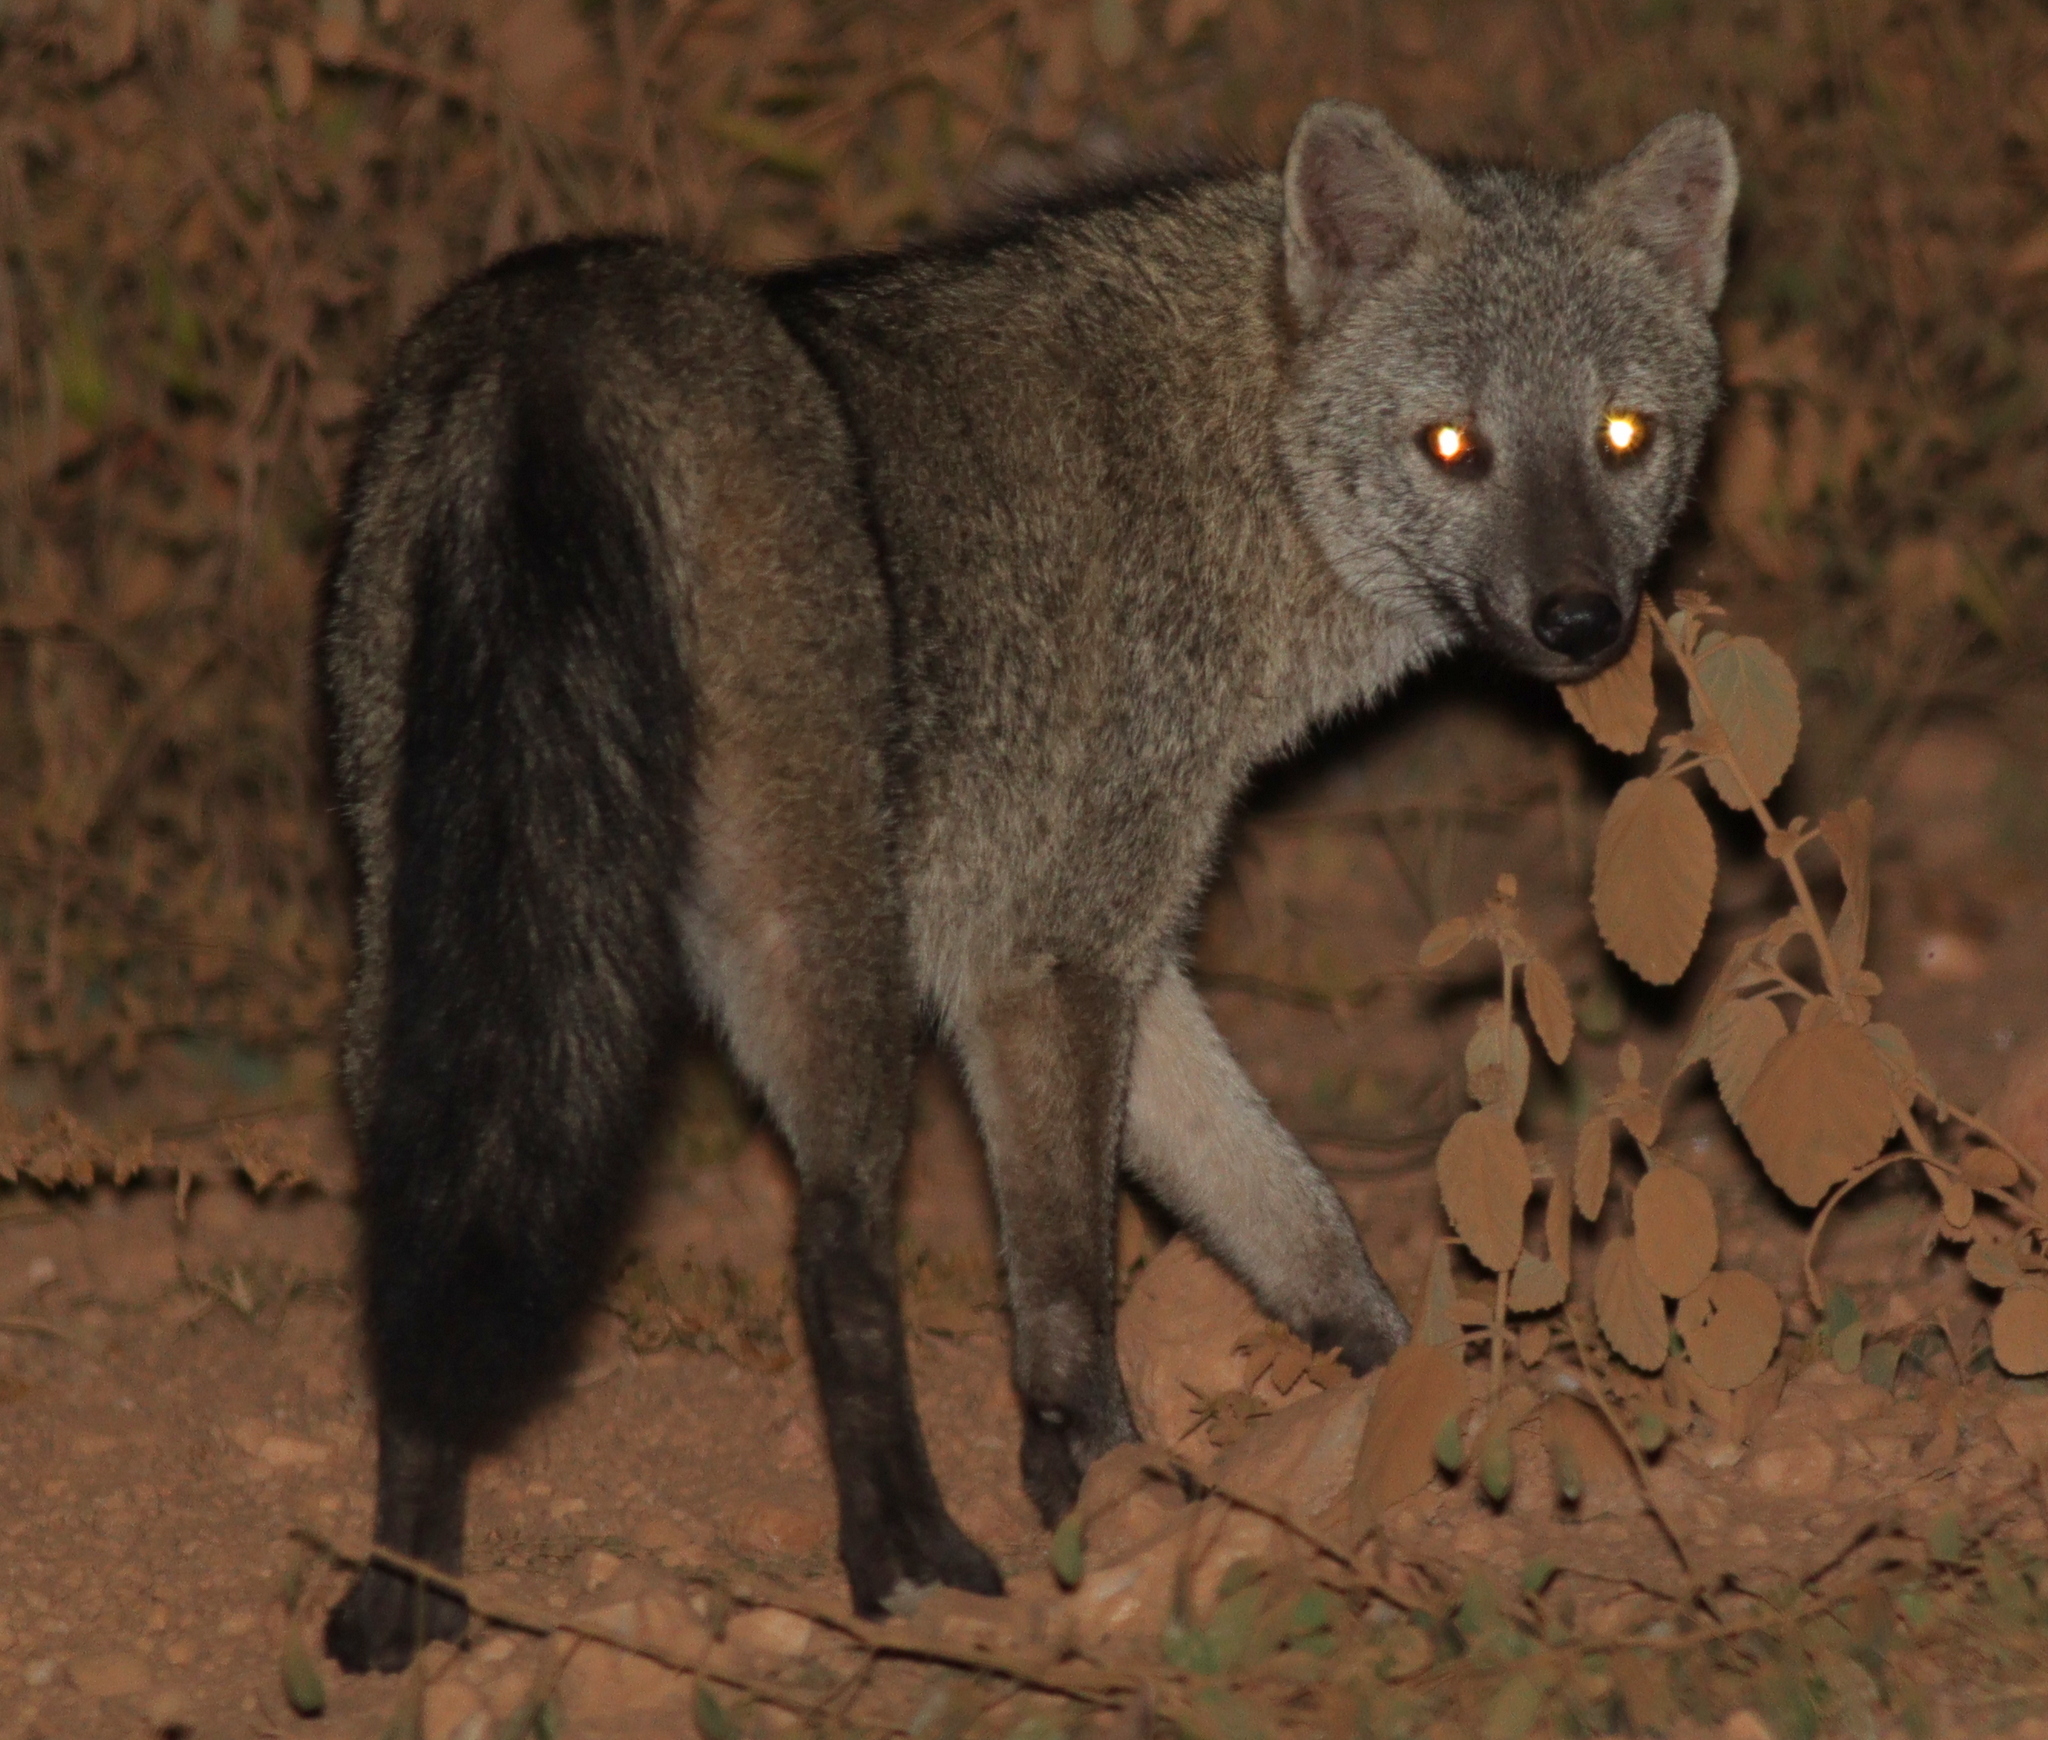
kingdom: Animalia
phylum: Chordata
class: Mammalia
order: Carnivora
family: Canidae
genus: Cerdocyon
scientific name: Cerdocyon thous
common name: Crab-eating fox
